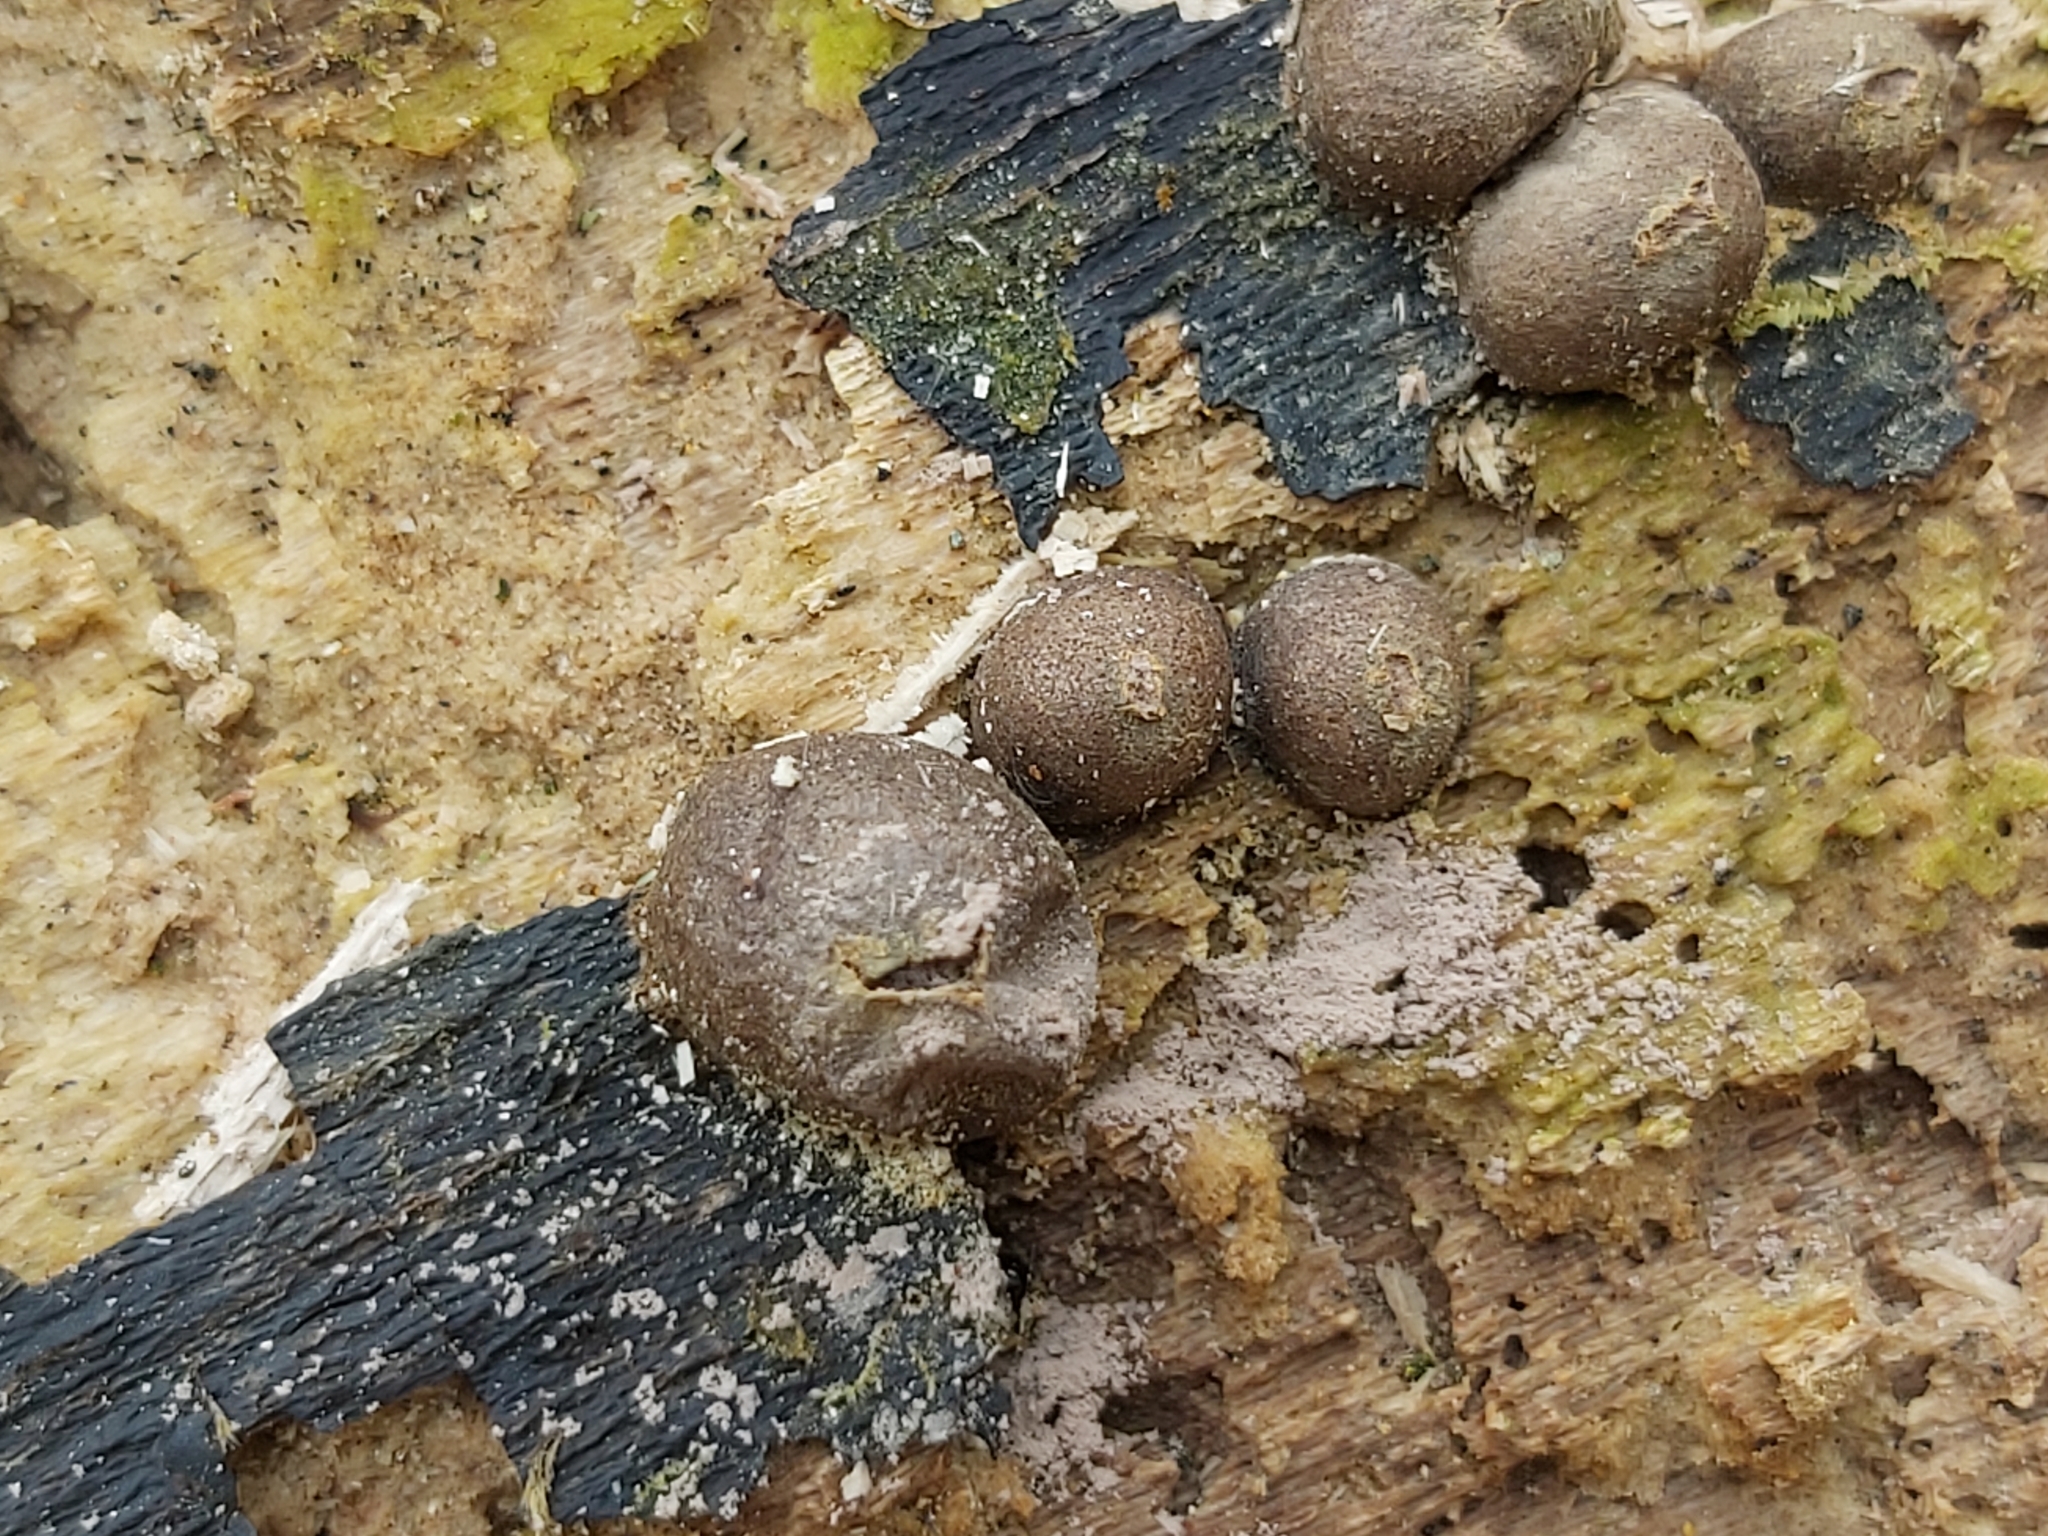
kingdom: Protozoa
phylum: Mycetozoa
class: Myxomycetes
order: Cribrariales
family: Tubiferaceae
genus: Lycogala
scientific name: Lycogala epidendrum
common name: Wolf's milk
